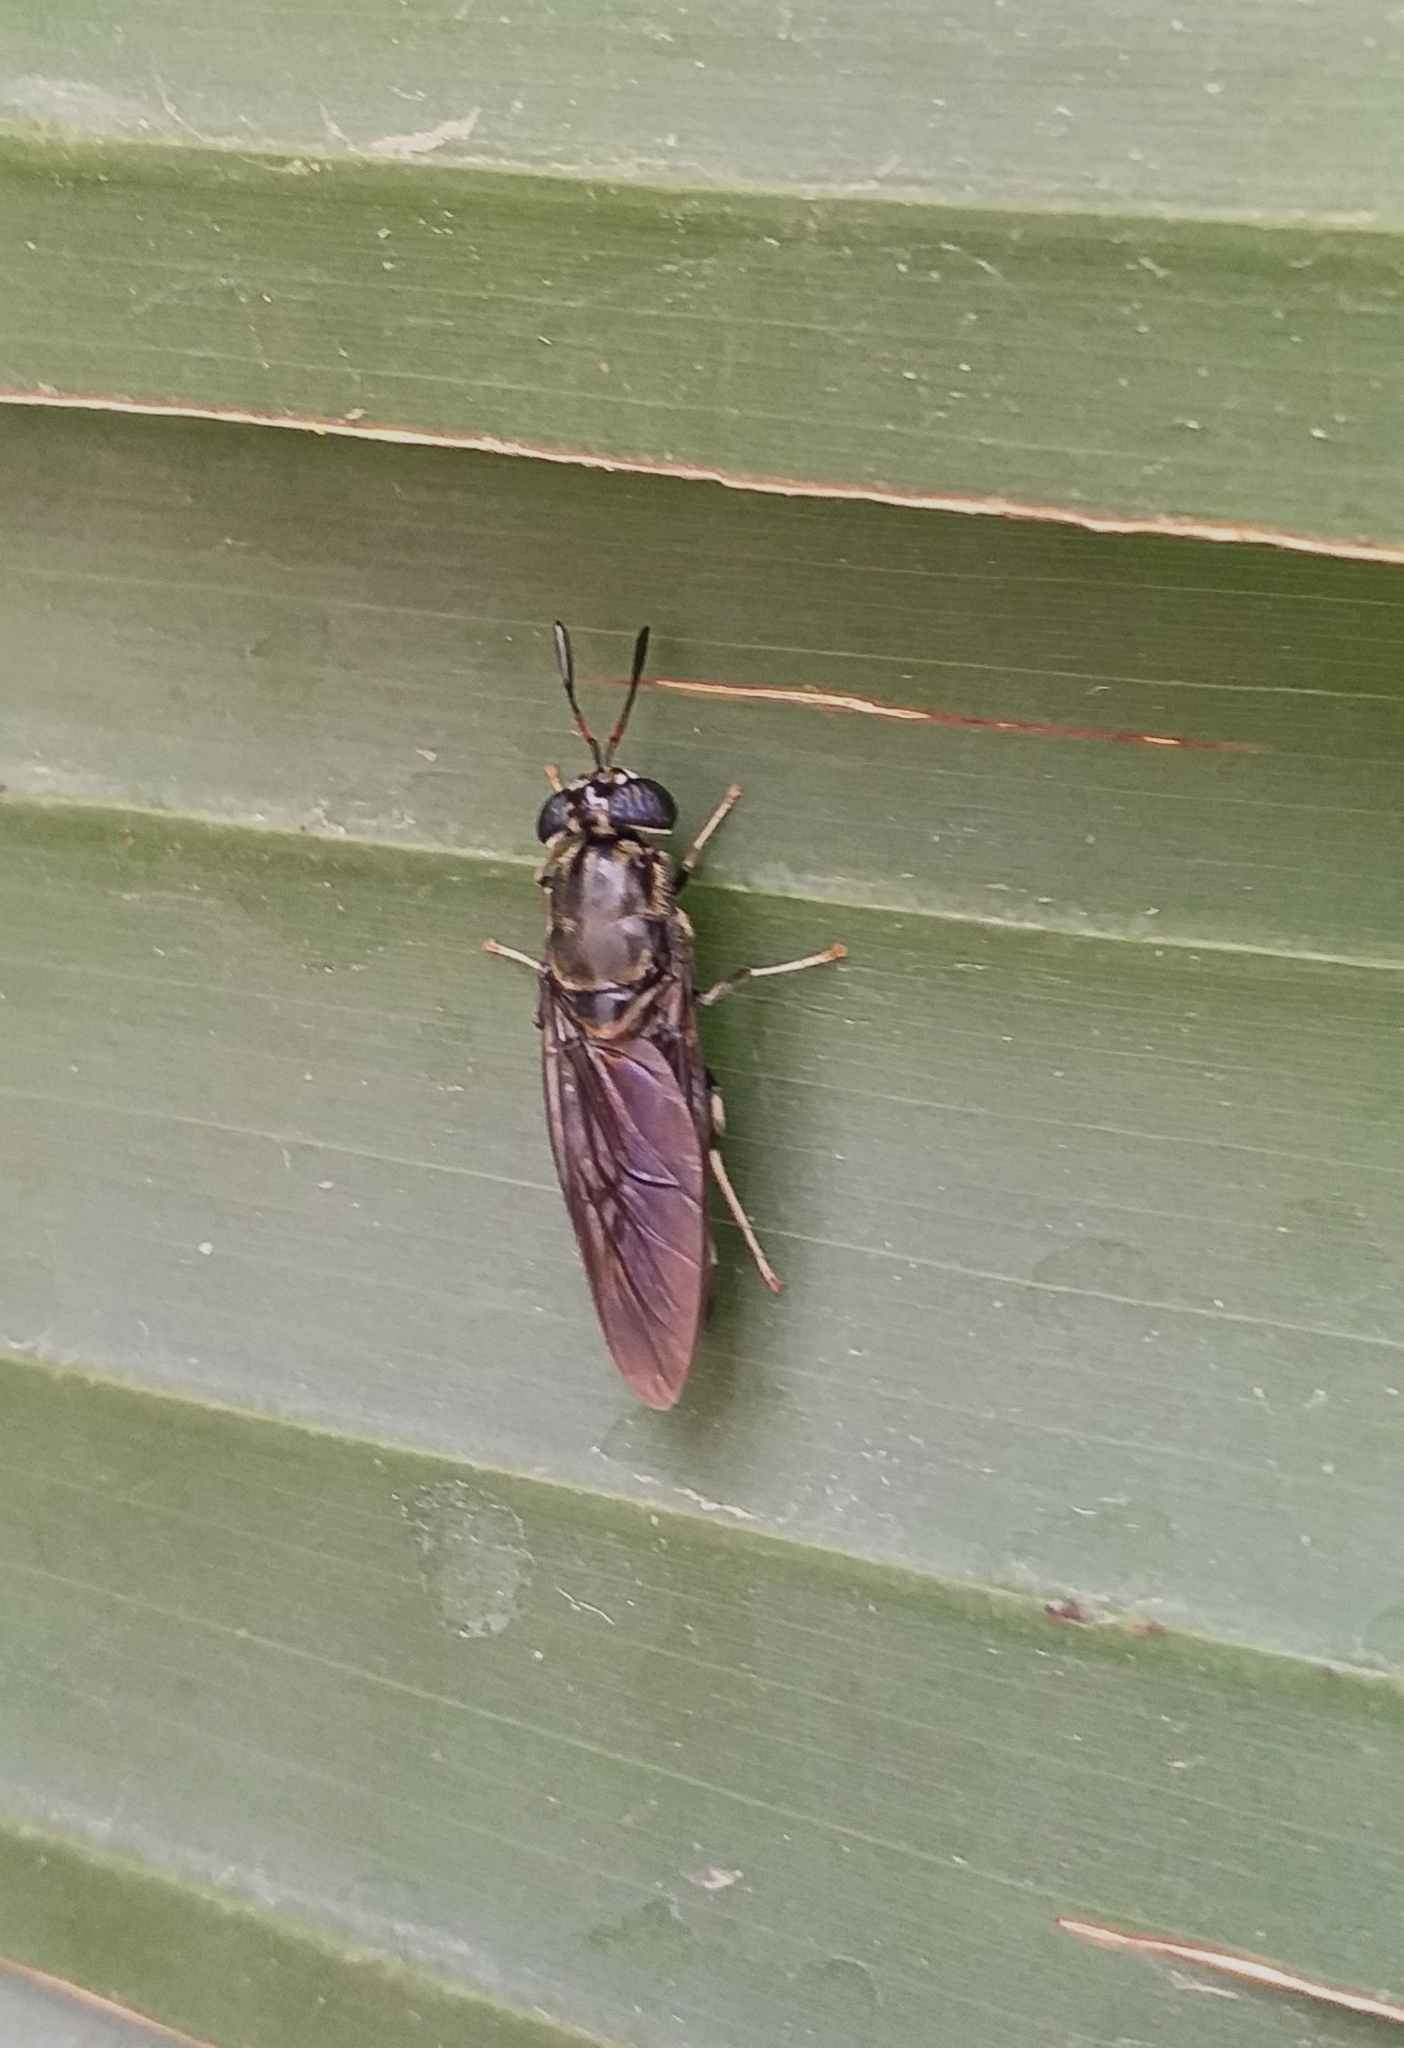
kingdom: Animalia
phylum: Arthropoda
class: Insecta
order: Diptera
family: Stratiomyidae
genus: Hermetia
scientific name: Hermetia illucens
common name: Black soldier fly
